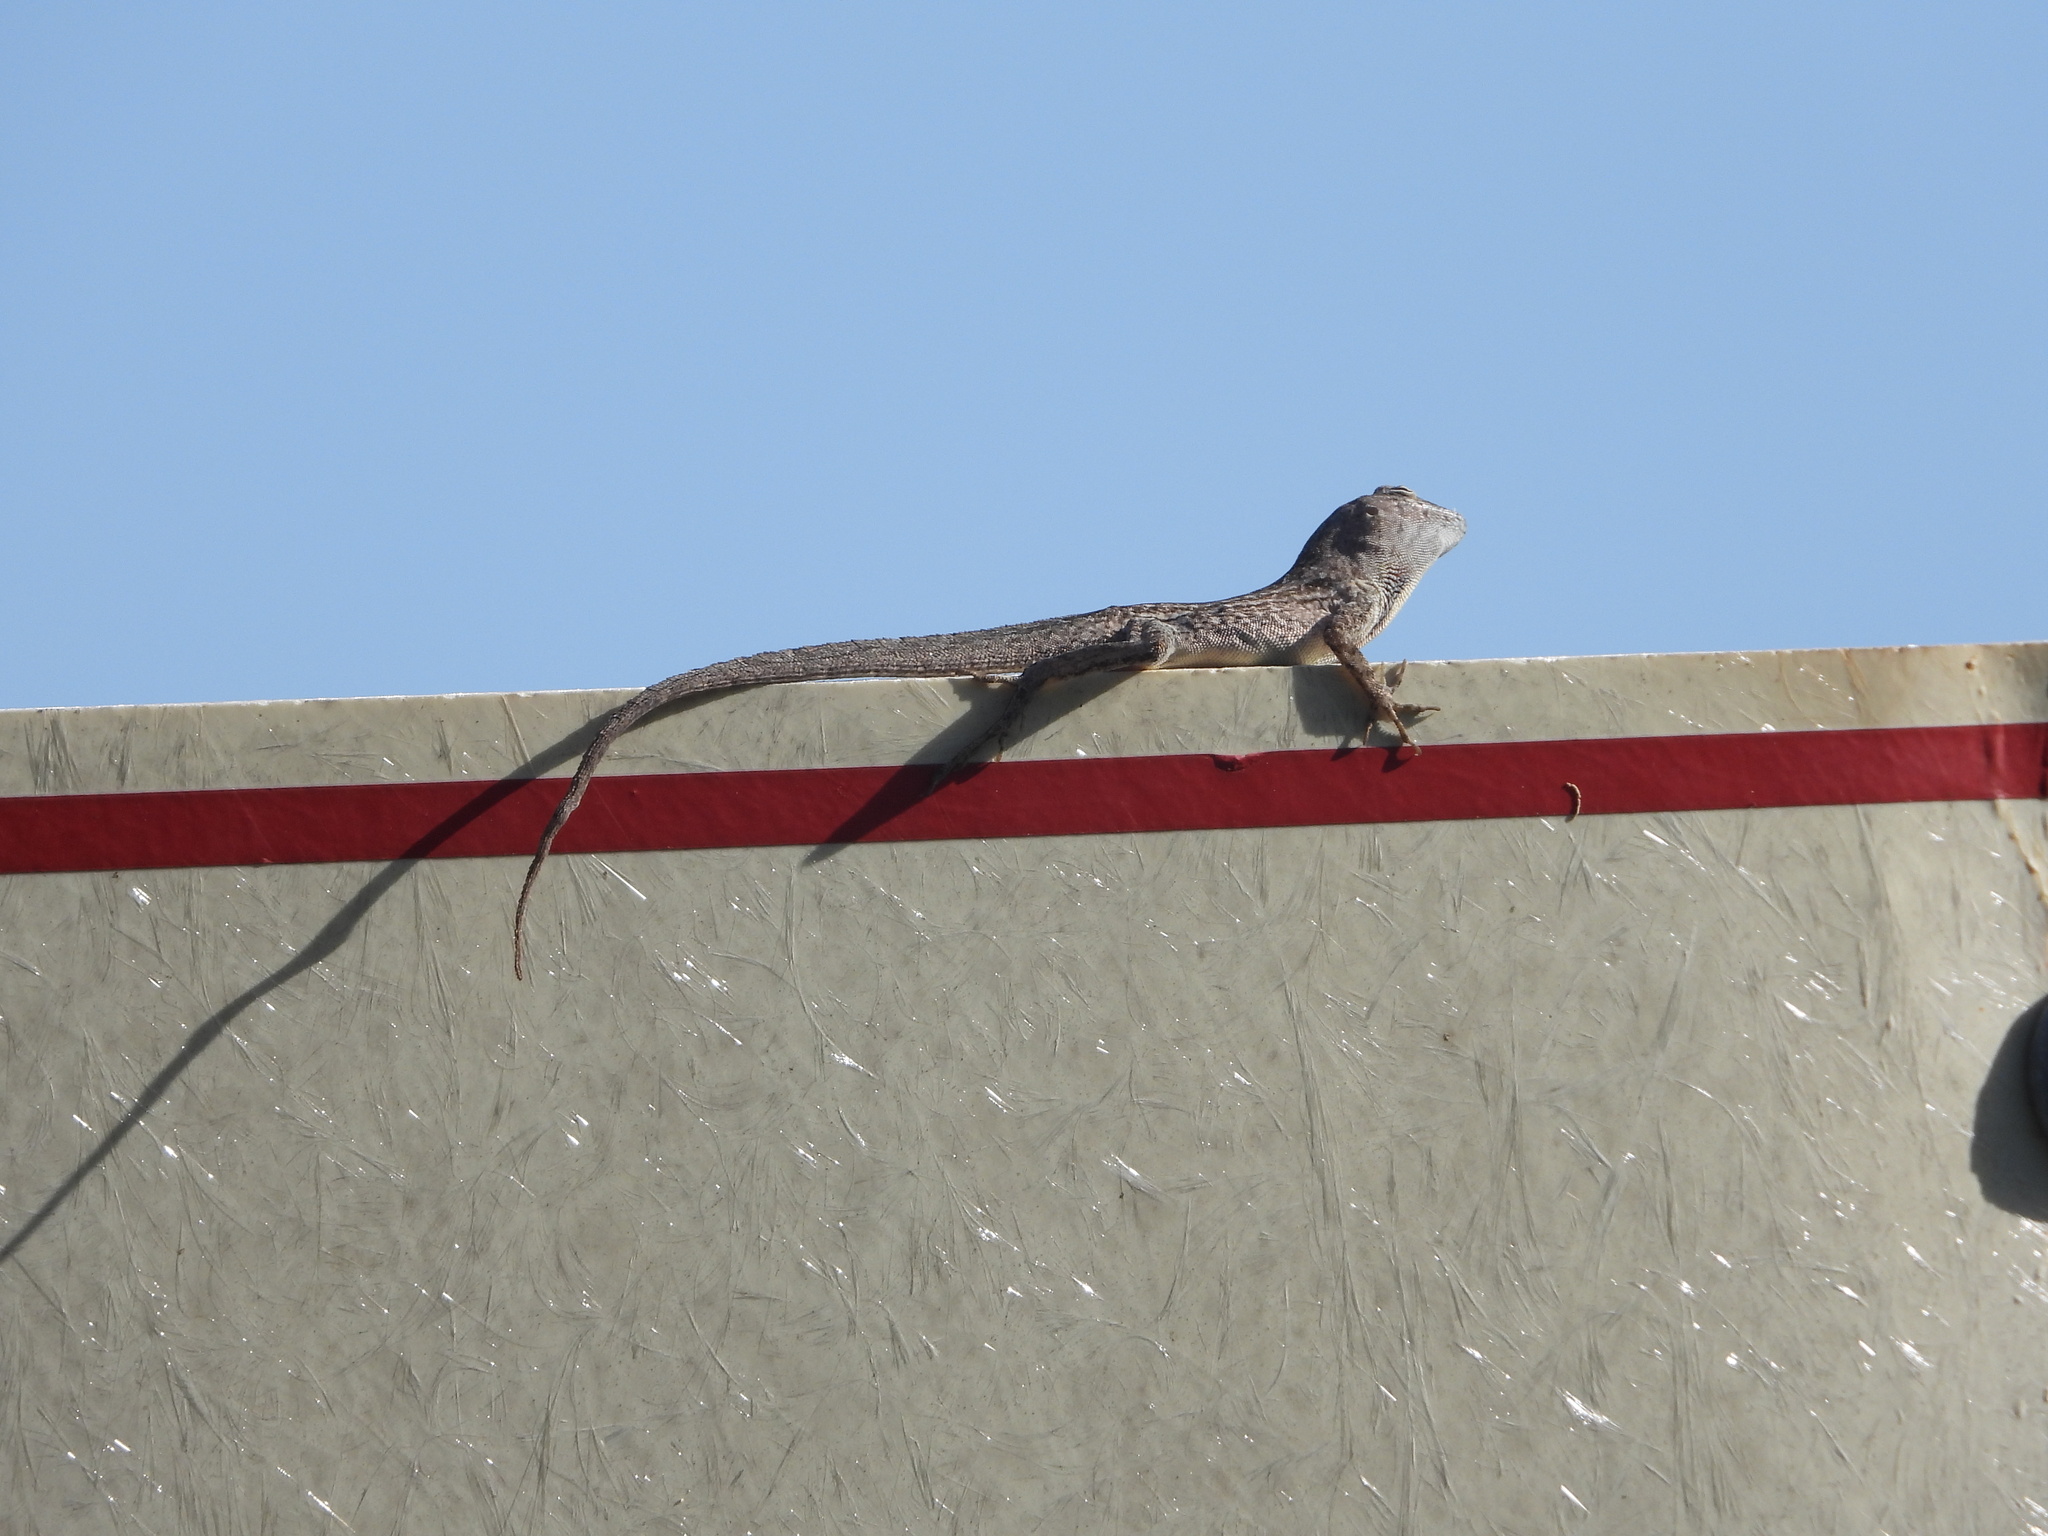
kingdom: Animalia
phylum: Chordata
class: Squamata
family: Dactyloidae
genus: Anolis
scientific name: Anolis sagrei
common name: Brown anole
